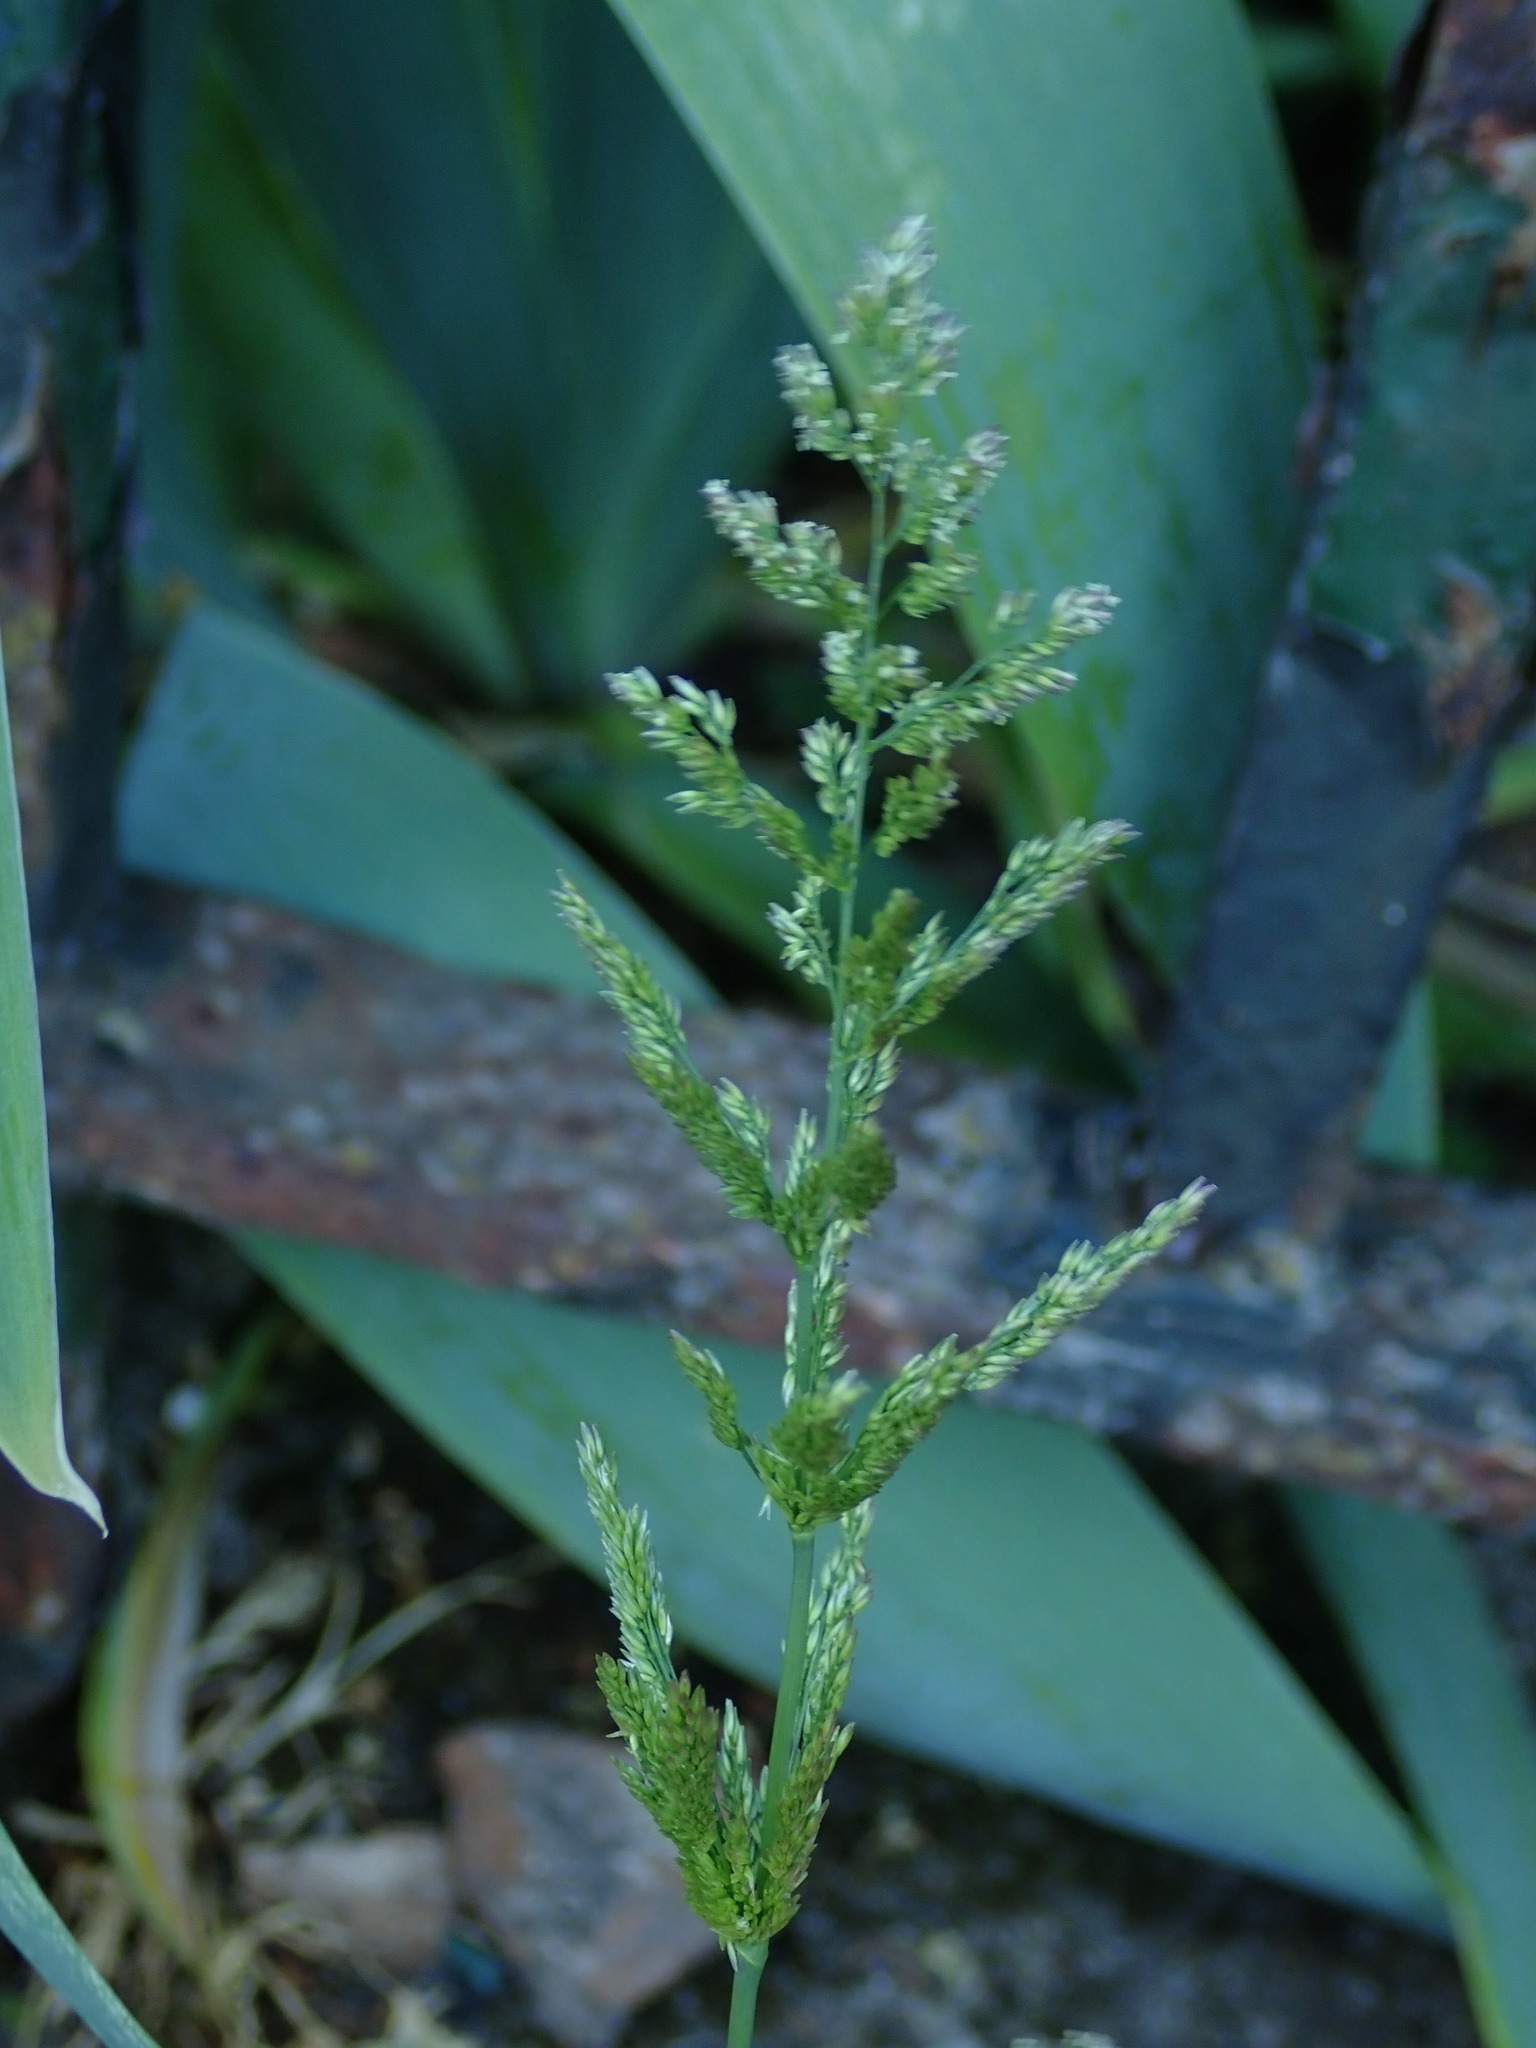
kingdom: Plantae
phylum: Tracheophyta
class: Liliopsida
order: Poales
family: Poaceae
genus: Polypogon
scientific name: Polypogon viridis
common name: Water bent
